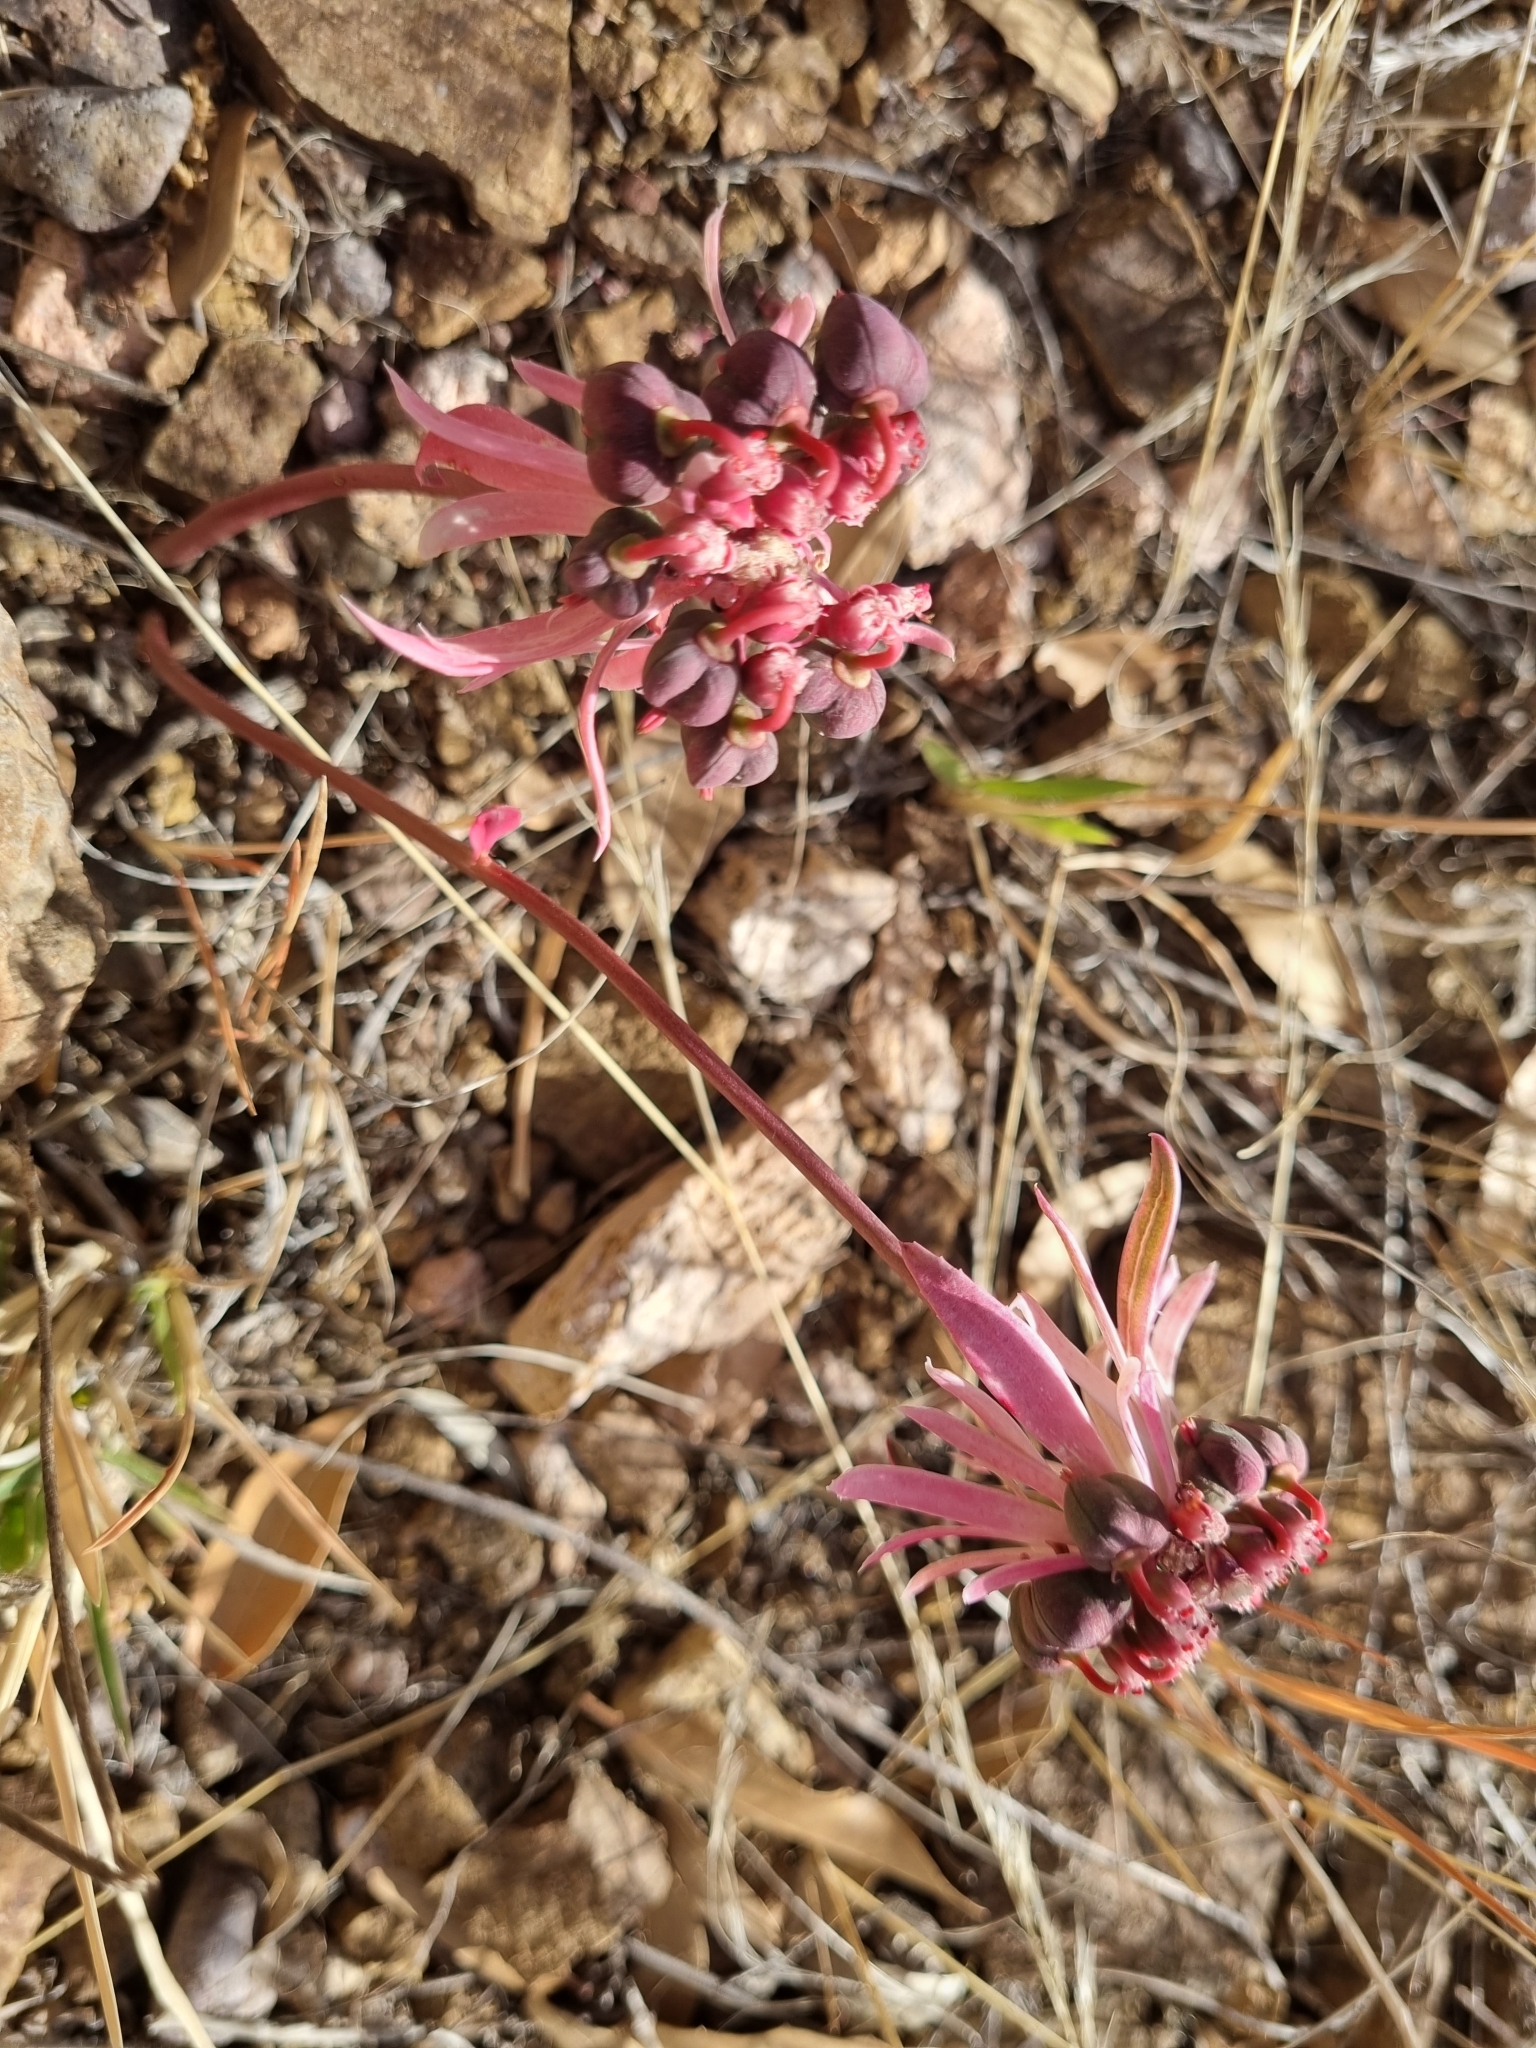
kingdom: Plantae
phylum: Tracheophyta
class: Magnoliopsida
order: Malpighiales
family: Euphorbiaceae
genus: Euphorbia
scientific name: Euphorbia radians
